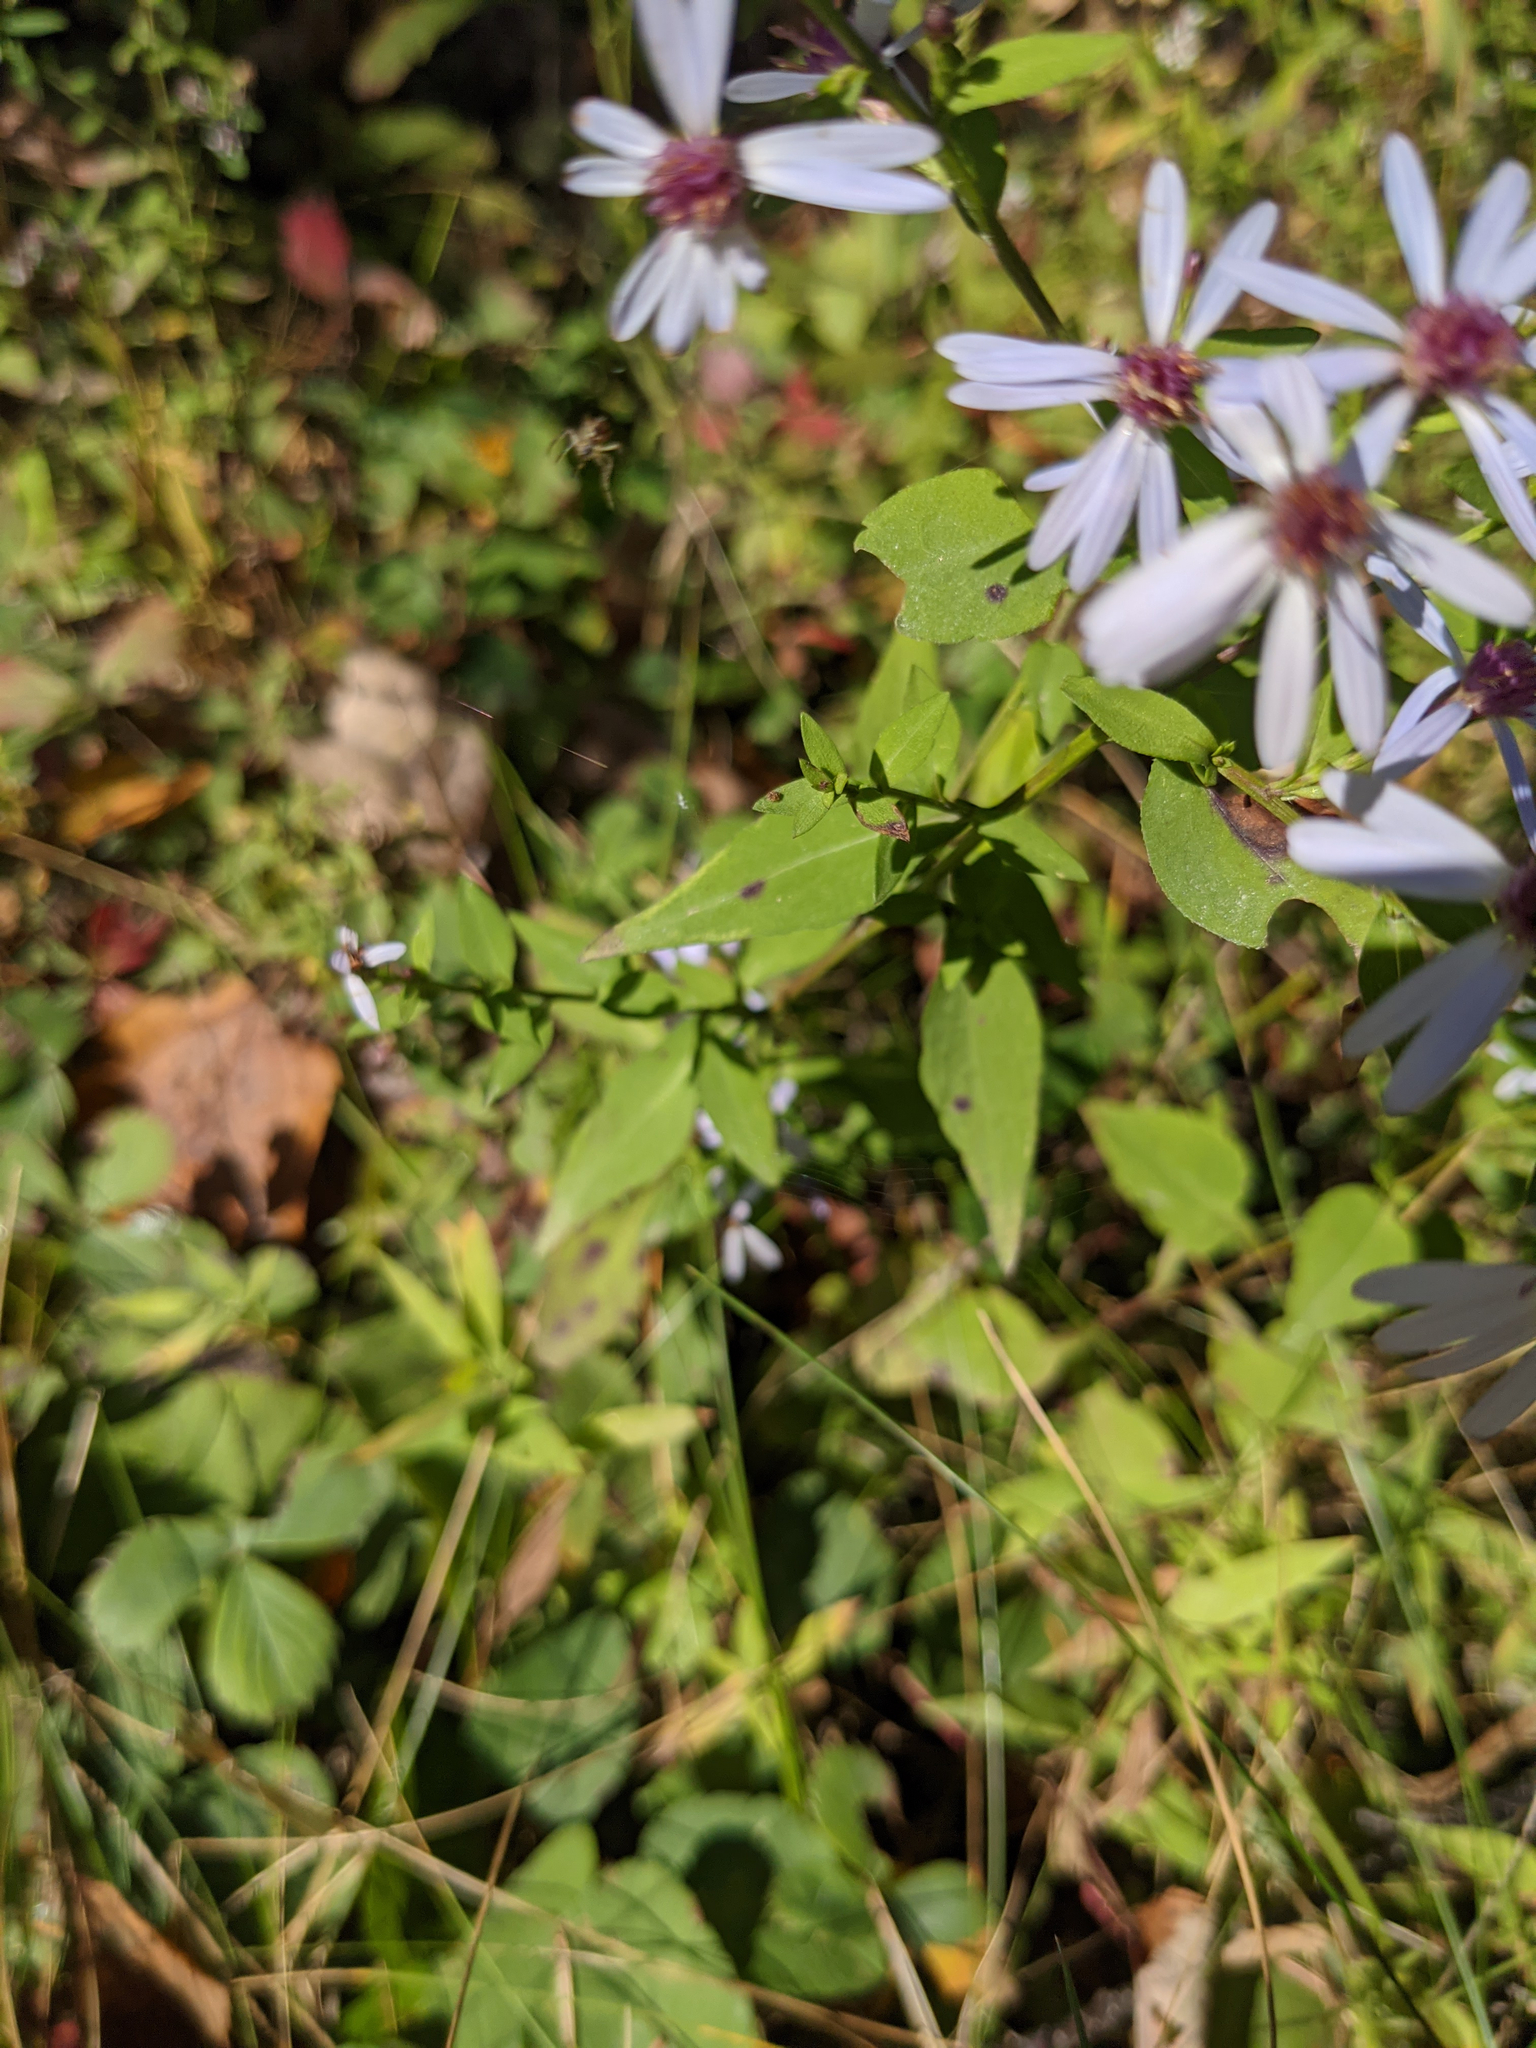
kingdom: Plantae
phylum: Tracheophyta
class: Magnoliopsida
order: Asterales
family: Asteraceae
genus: Symphyotrichum
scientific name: Symphyotrichum cordifolium
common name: Beeweed
